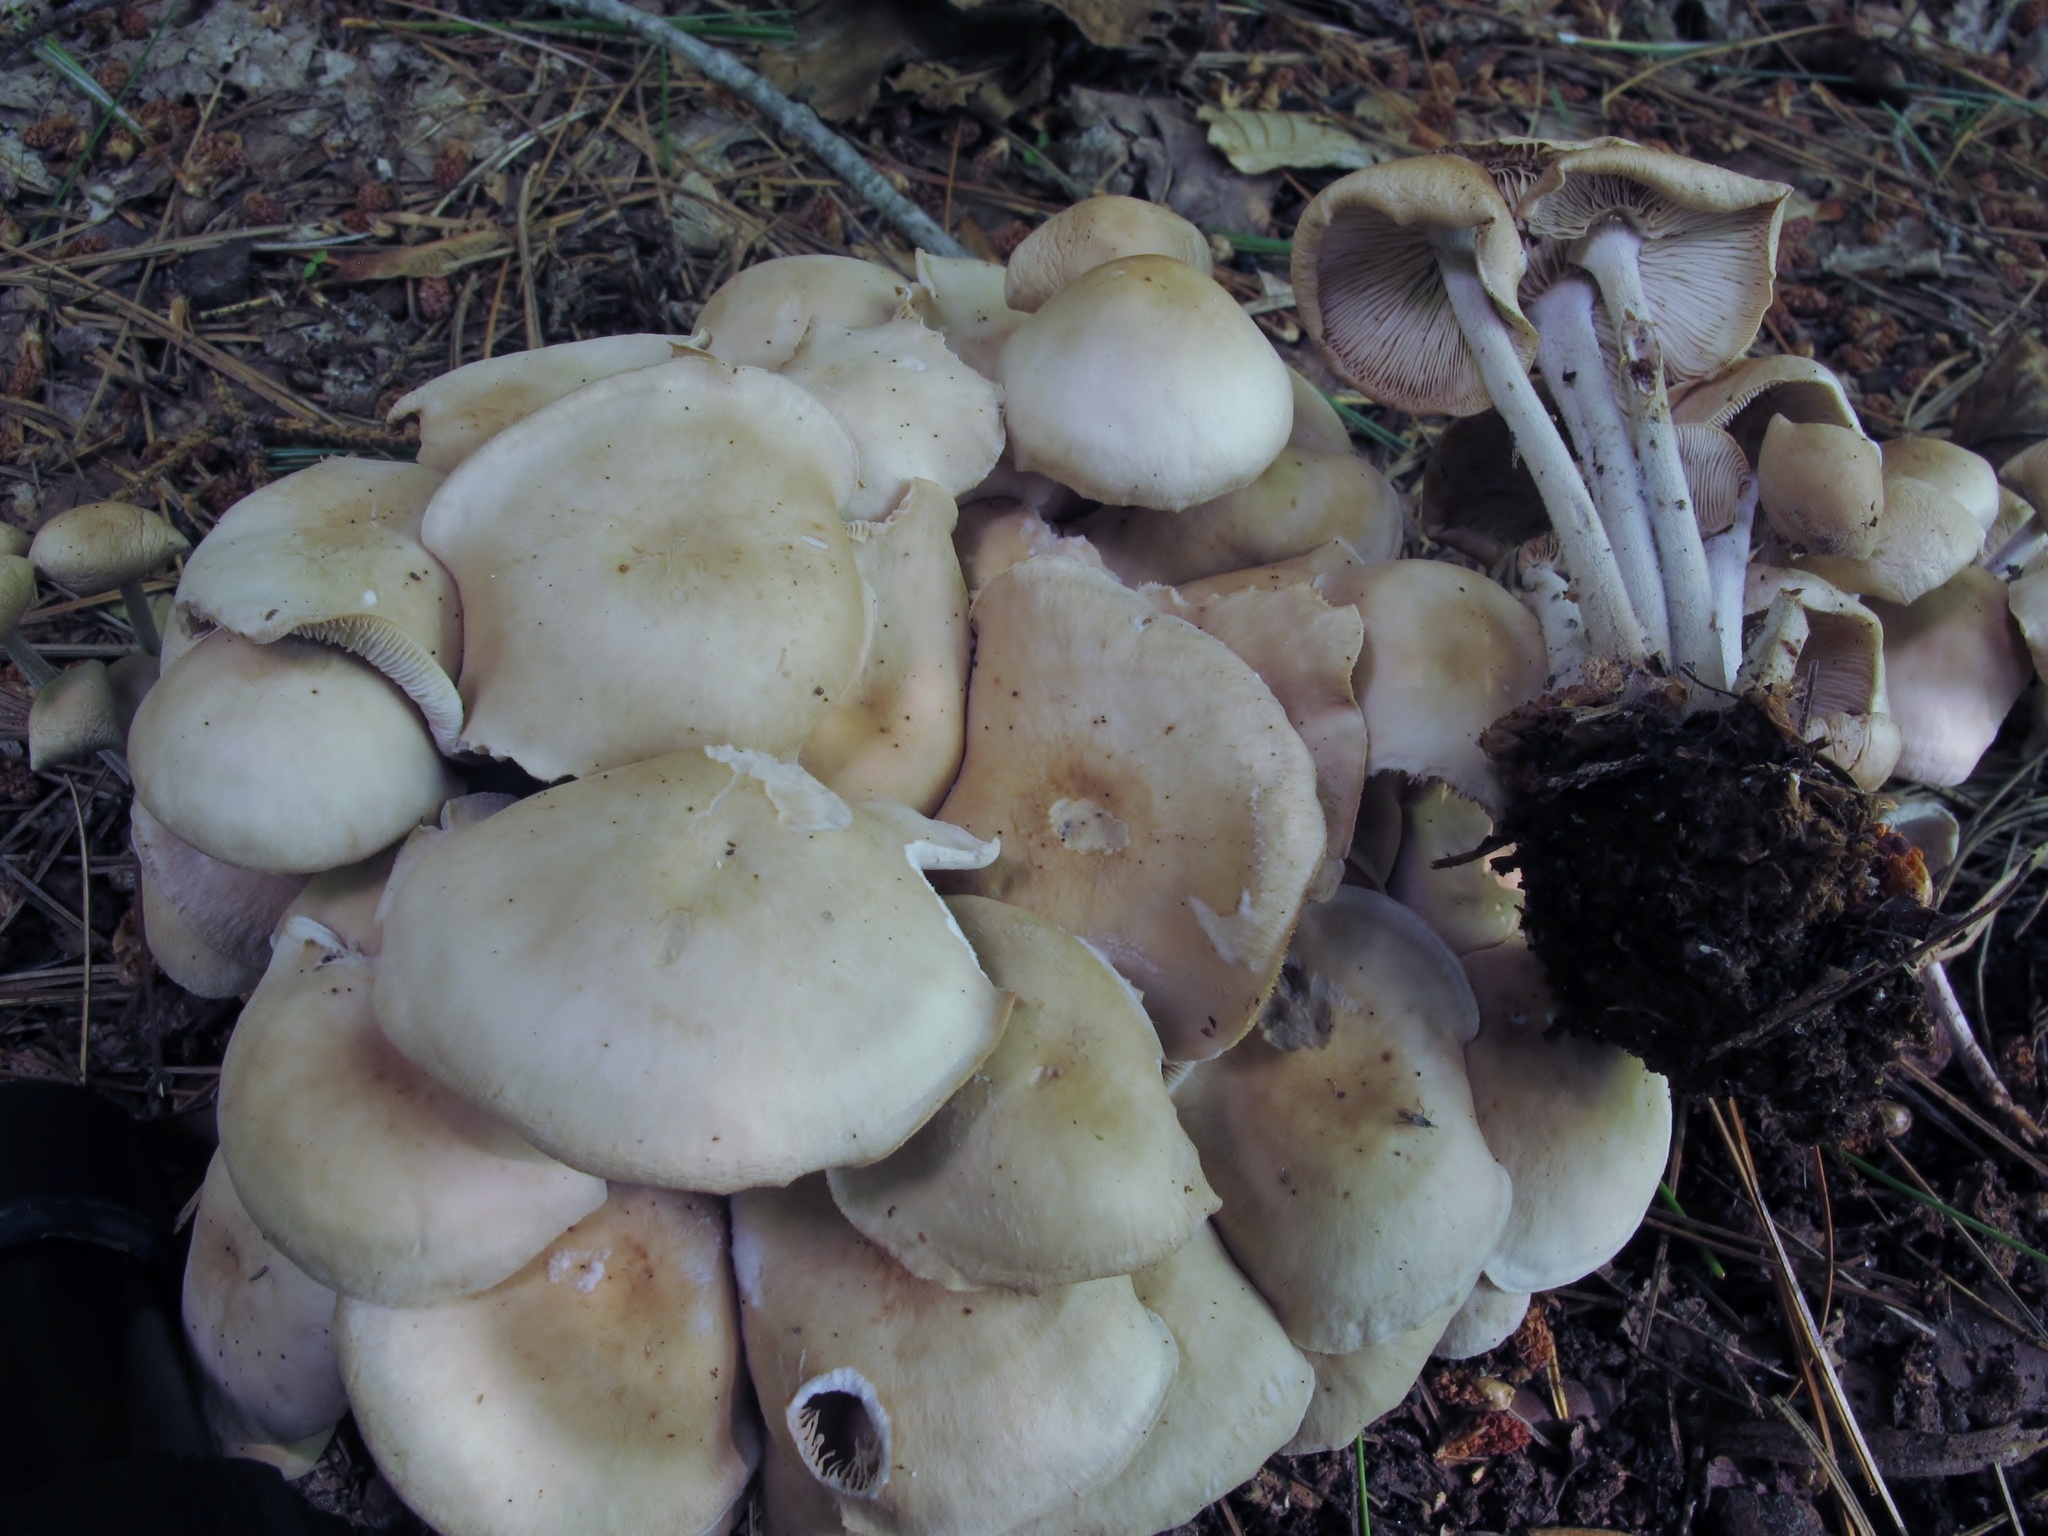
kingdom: Fungi
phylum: Basidiomycota
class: Agaricomycetes
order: Agaricales
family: Omphalotaceae
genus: Collybiopsis
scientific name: Collybiopsis confluens
